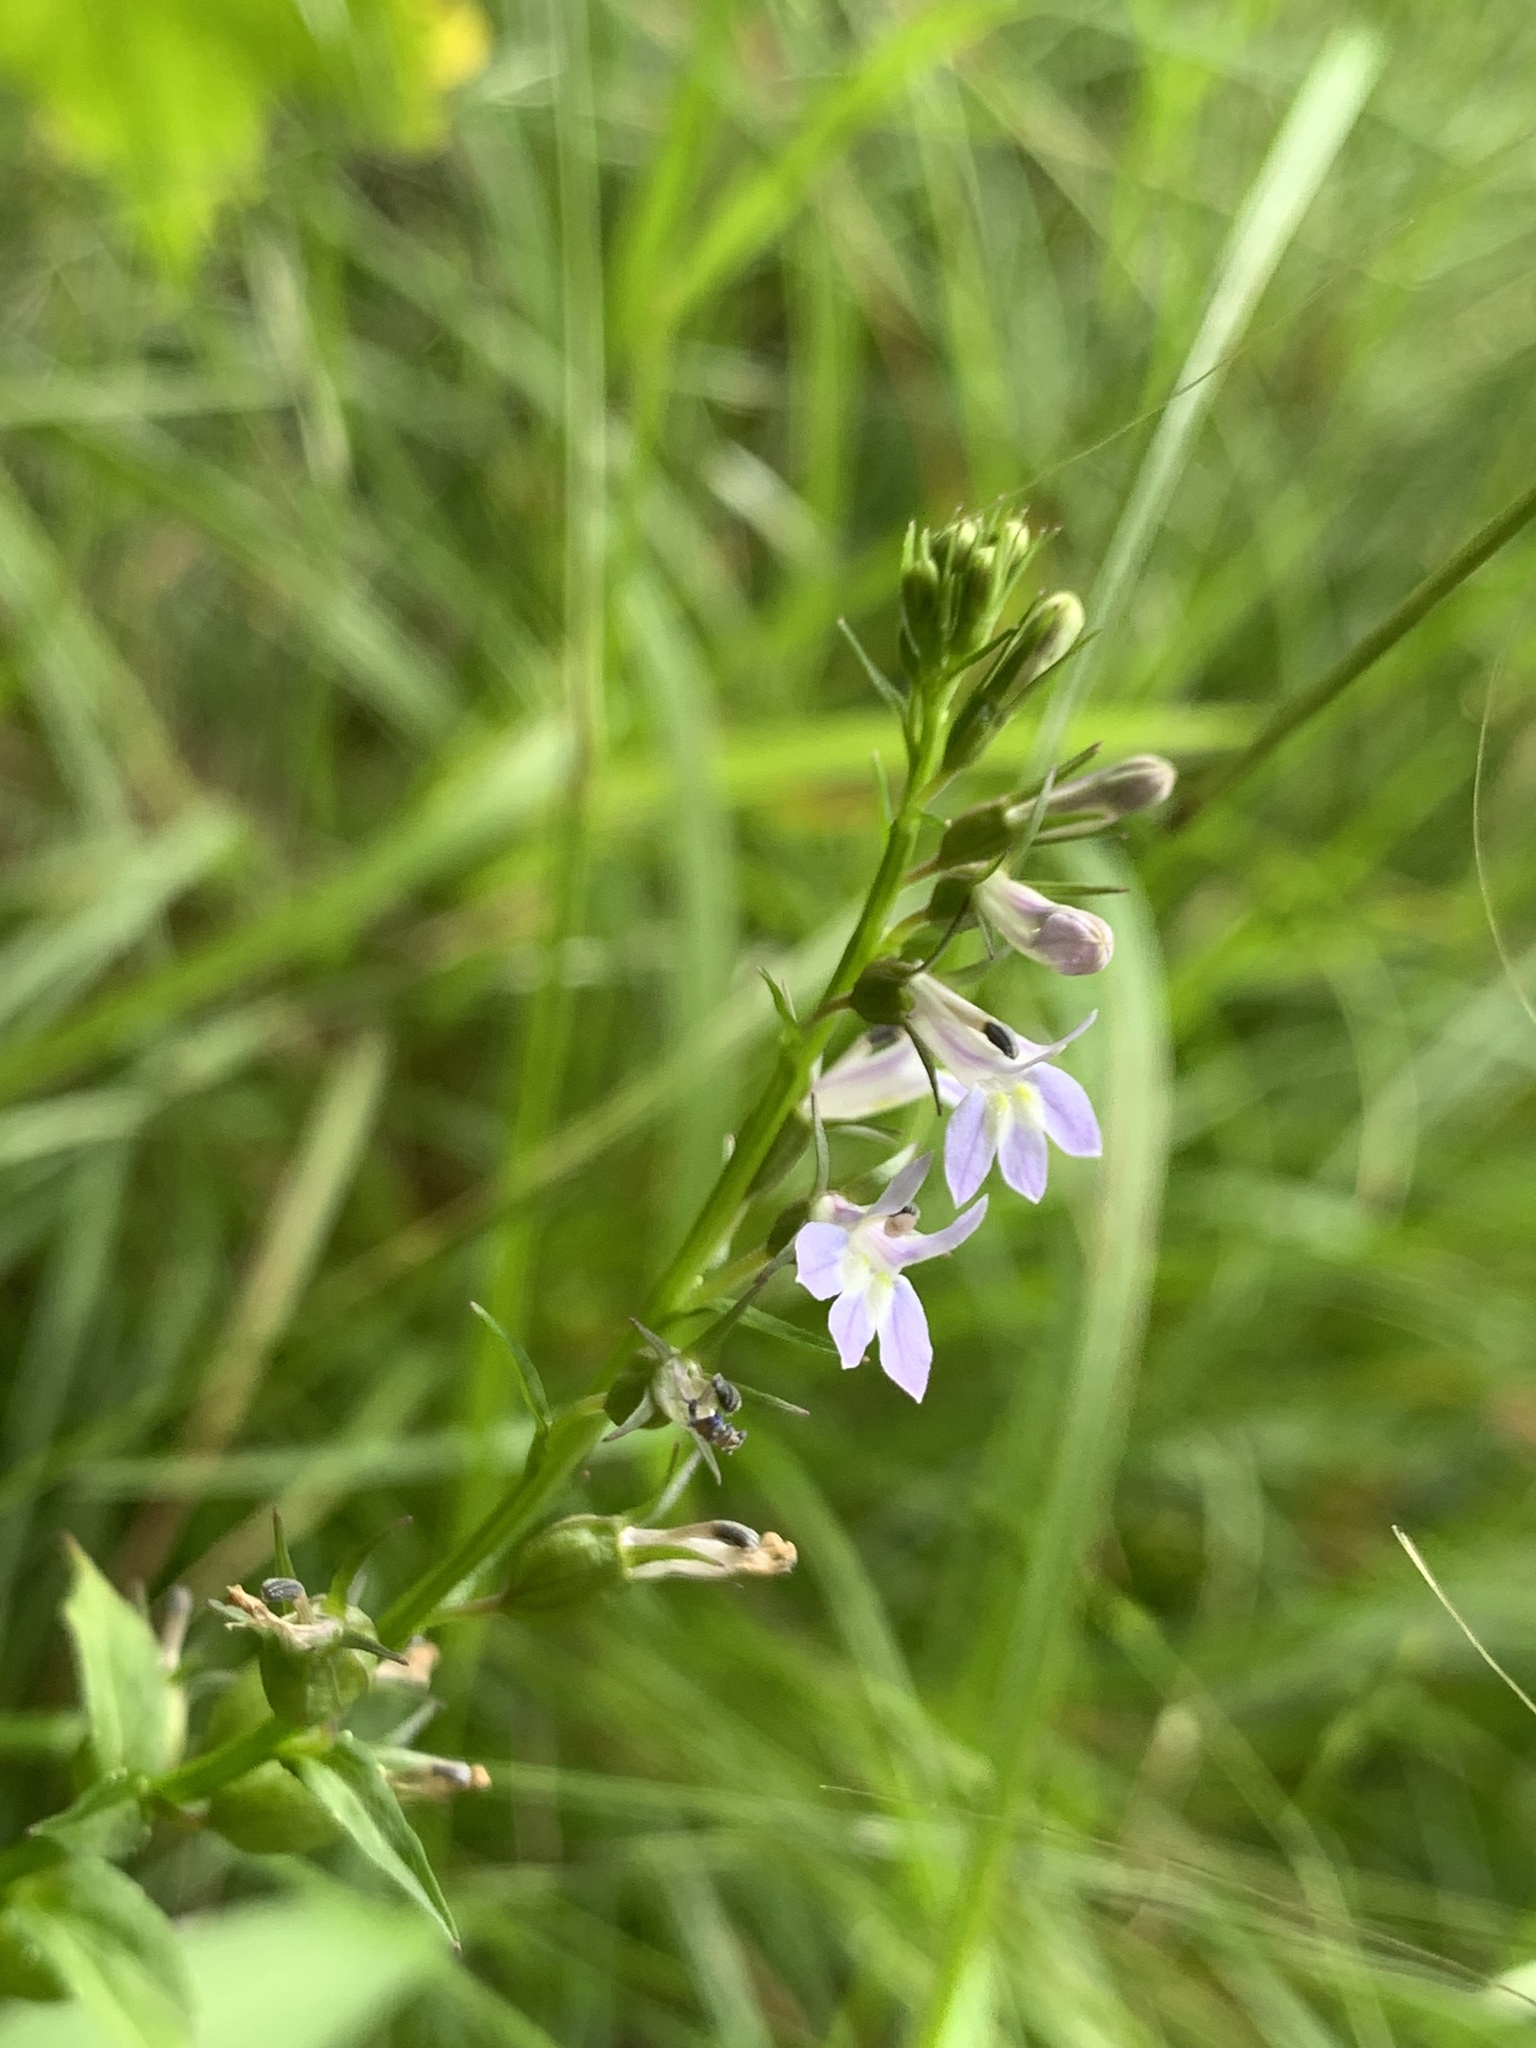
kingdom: Plantae
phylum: Tracheophyta
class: Magnoliopsida
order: Asterales
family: Campanulaceae
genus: Lobelia
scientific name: Lobelia inflata
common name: Indian tobacco
